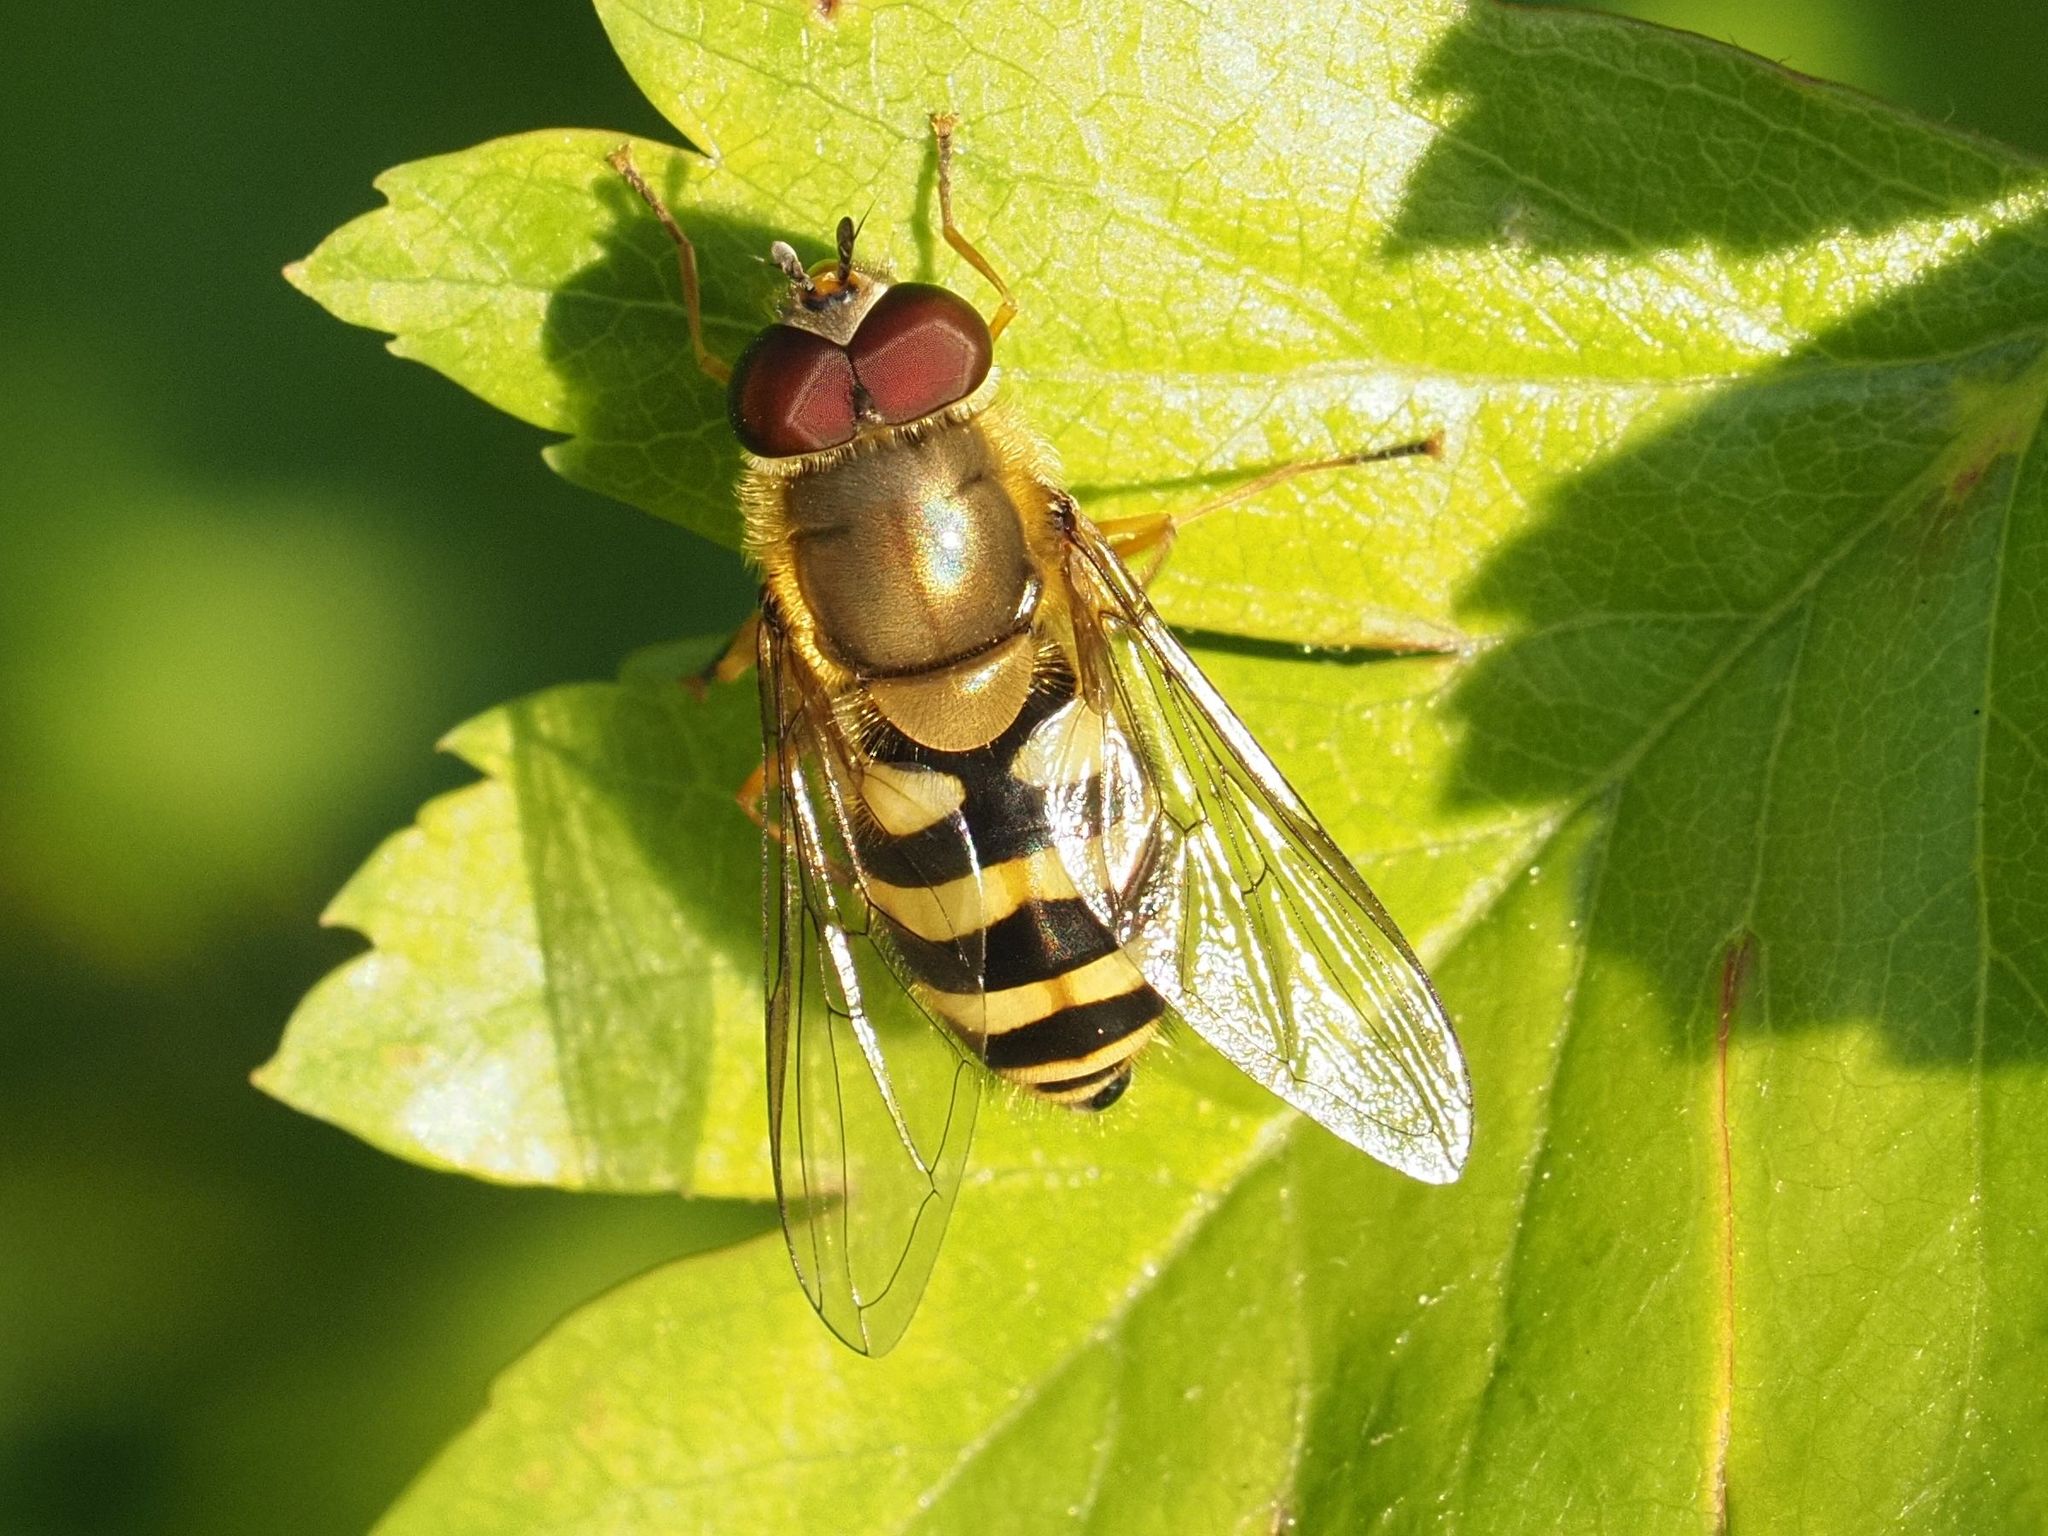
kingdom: Animalia
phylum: Arthropoda
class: Insecta
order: Diptera
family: Syrphidae
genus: Syrphus
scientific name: Syrphus
